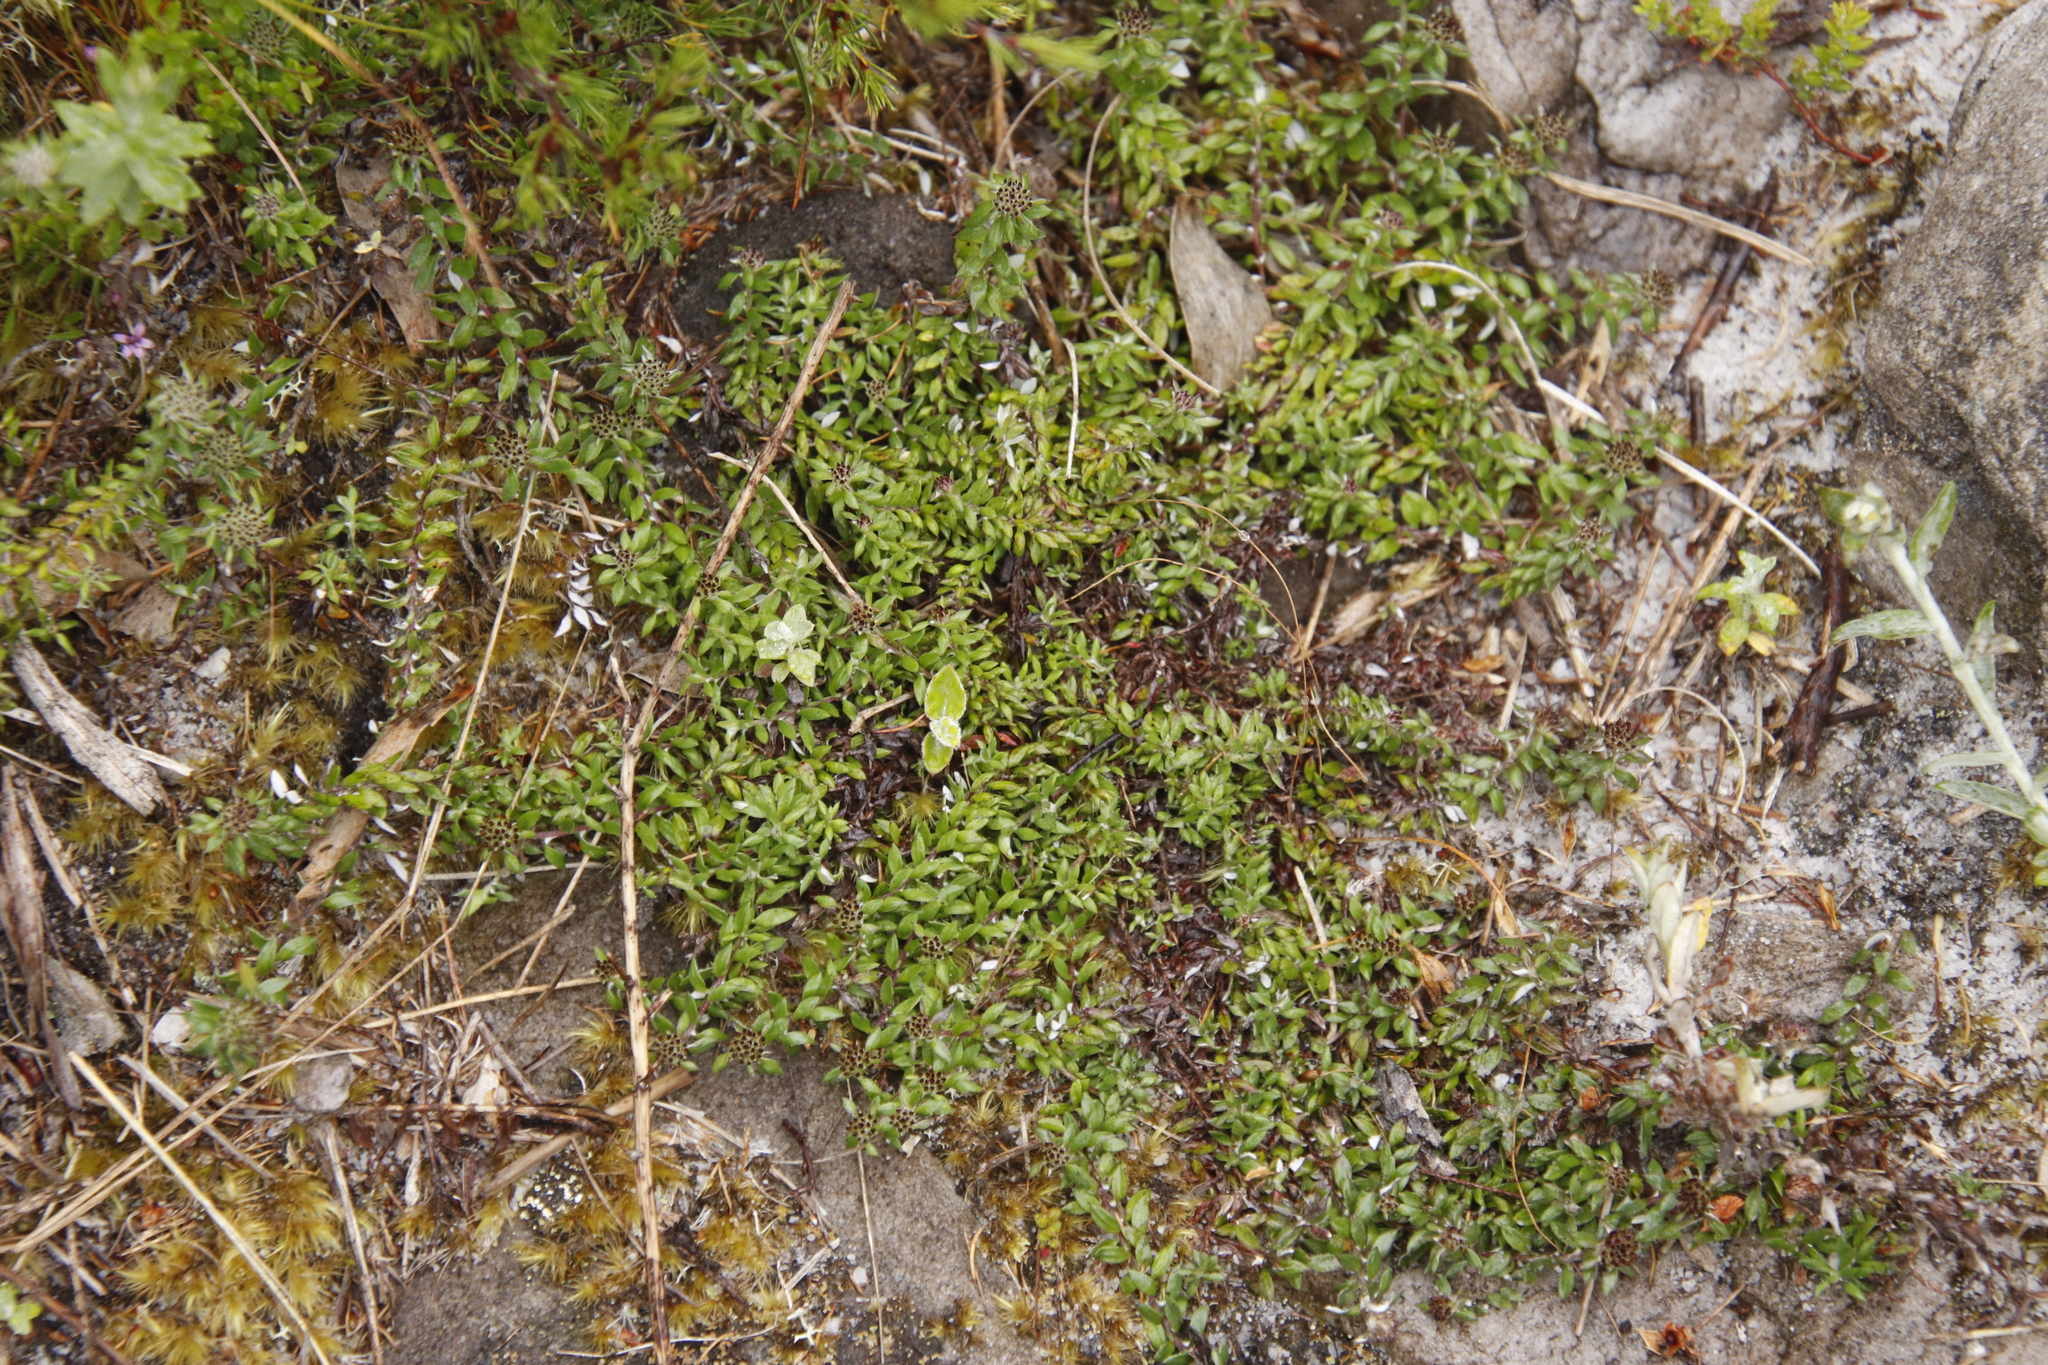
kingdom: Plantae
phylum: Tracheophyta
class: Magnoliopsida
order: Asterales
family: Asteraceae
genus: Stoebe
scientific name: Stoebe prostrata
